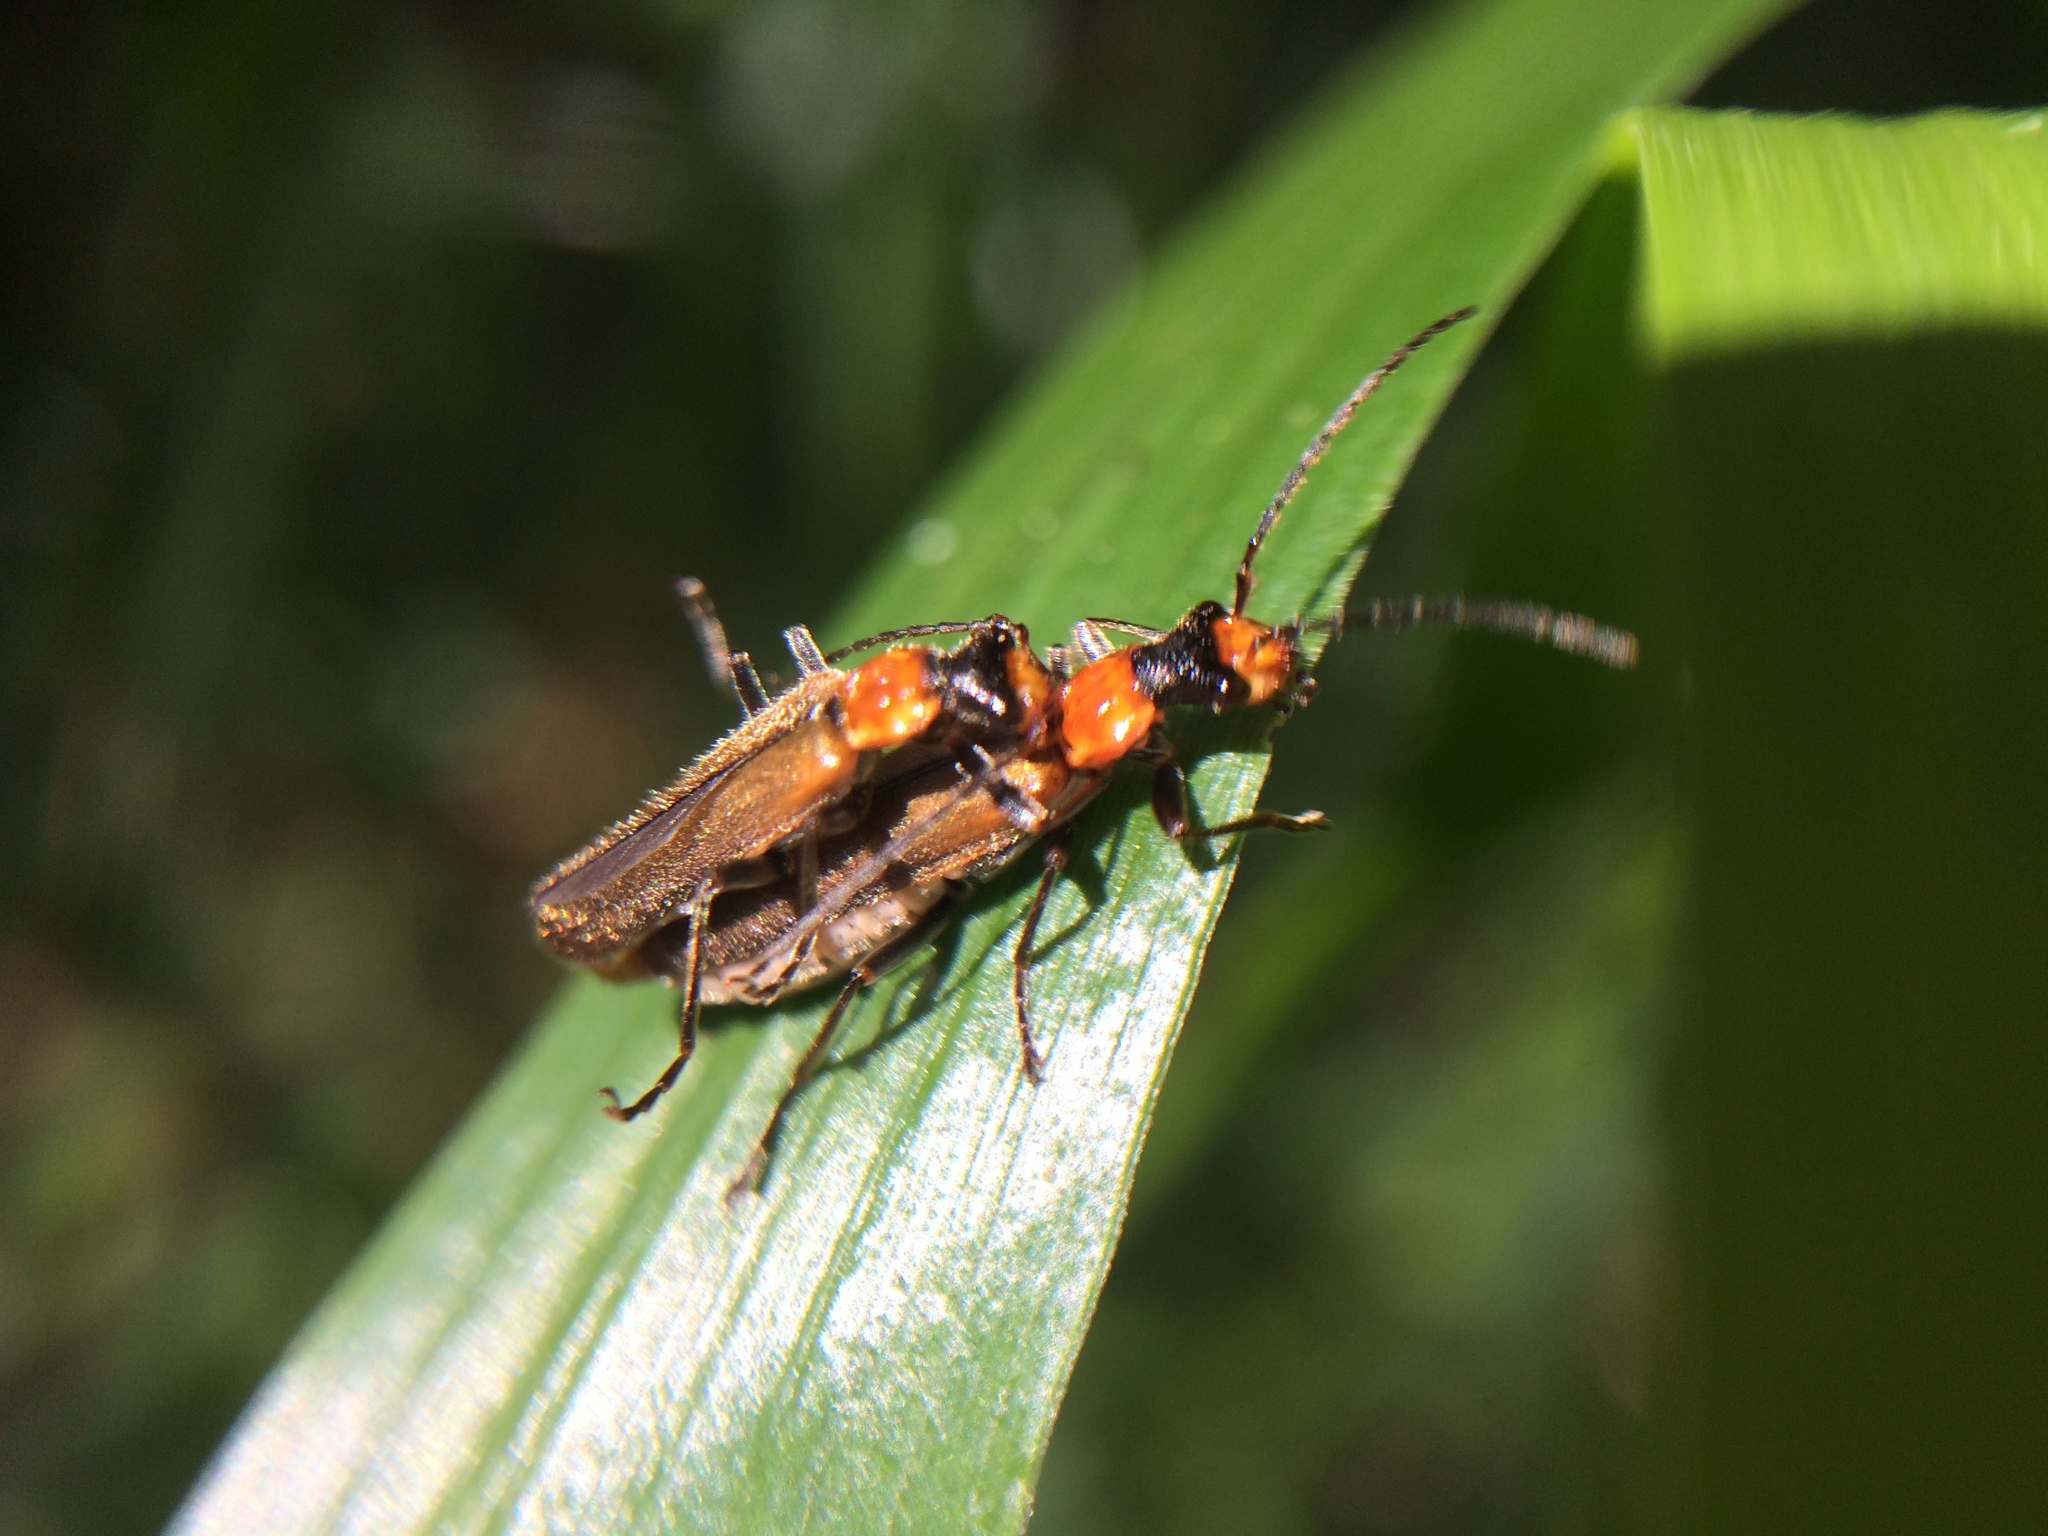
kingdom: Animalia
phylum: Arthropoda
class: Insecta
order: Coleoptera
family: Cantharidae
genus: Dichelotarsus
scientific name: Dichelotarsus cavicollis
